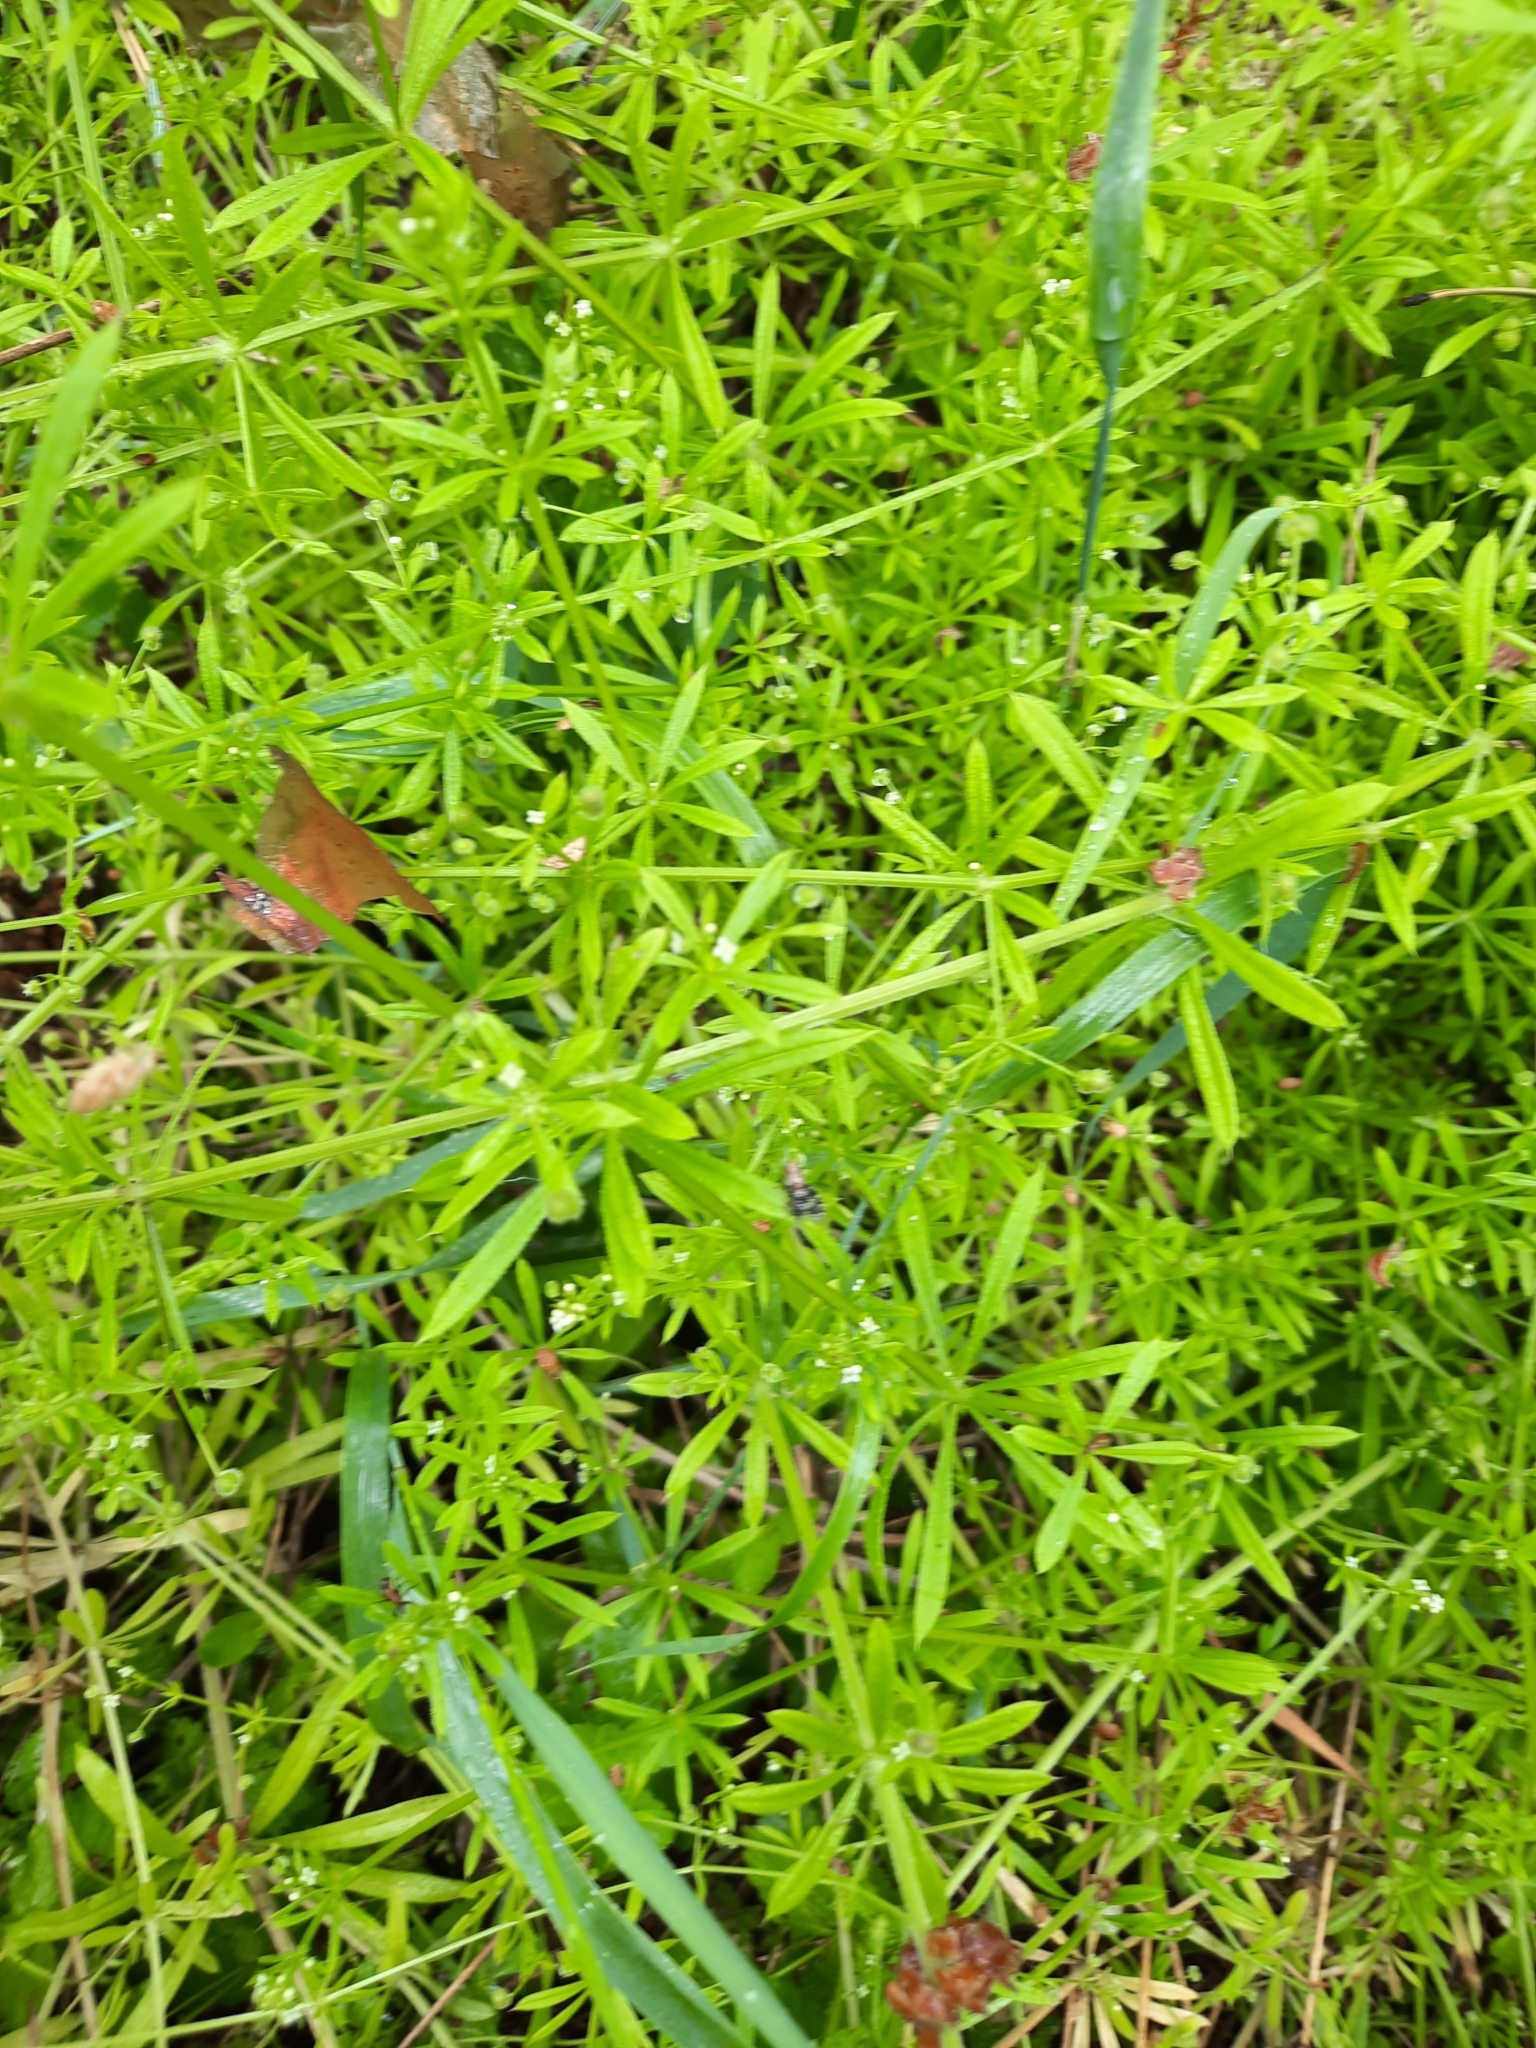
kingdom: Plantae
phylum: Tracheophyta
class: Magnoliopsida
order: Gentianales
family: Rubiaceae
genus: Galium
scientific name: Galium aparine
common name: Cleavers
